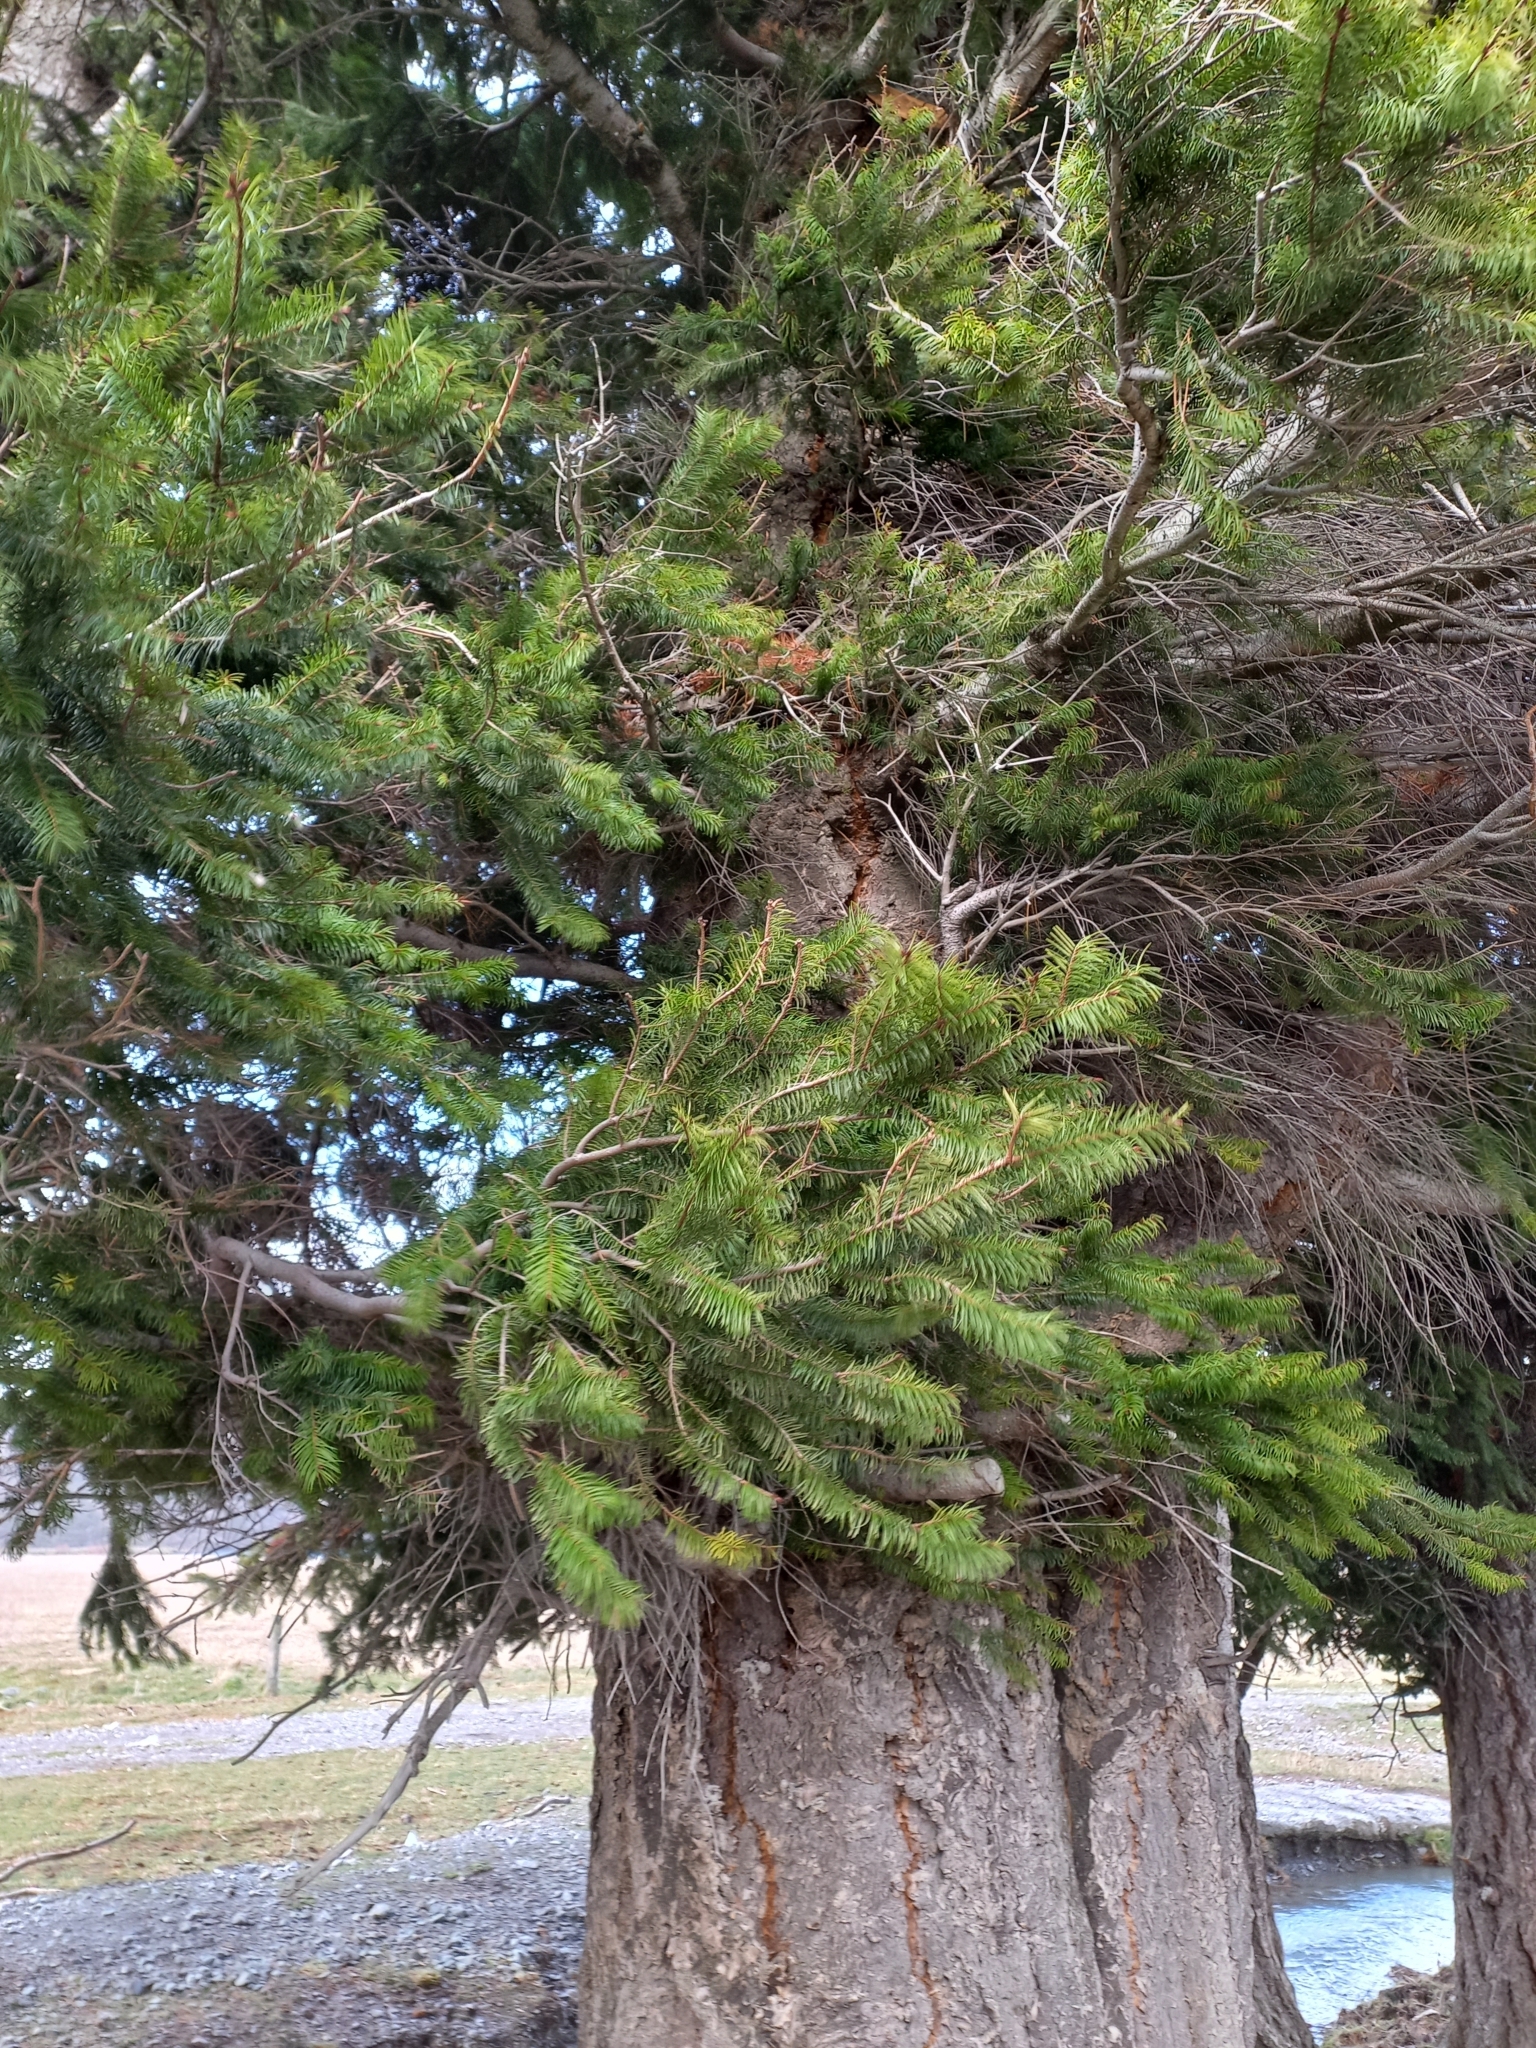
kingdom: Plantae
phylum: Tracheophyta
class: Pinopsida
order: Pinales
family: Pinaceae
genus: Pseudotsuga
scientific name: Pseudotsuga menziesii
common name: Douglas fir
